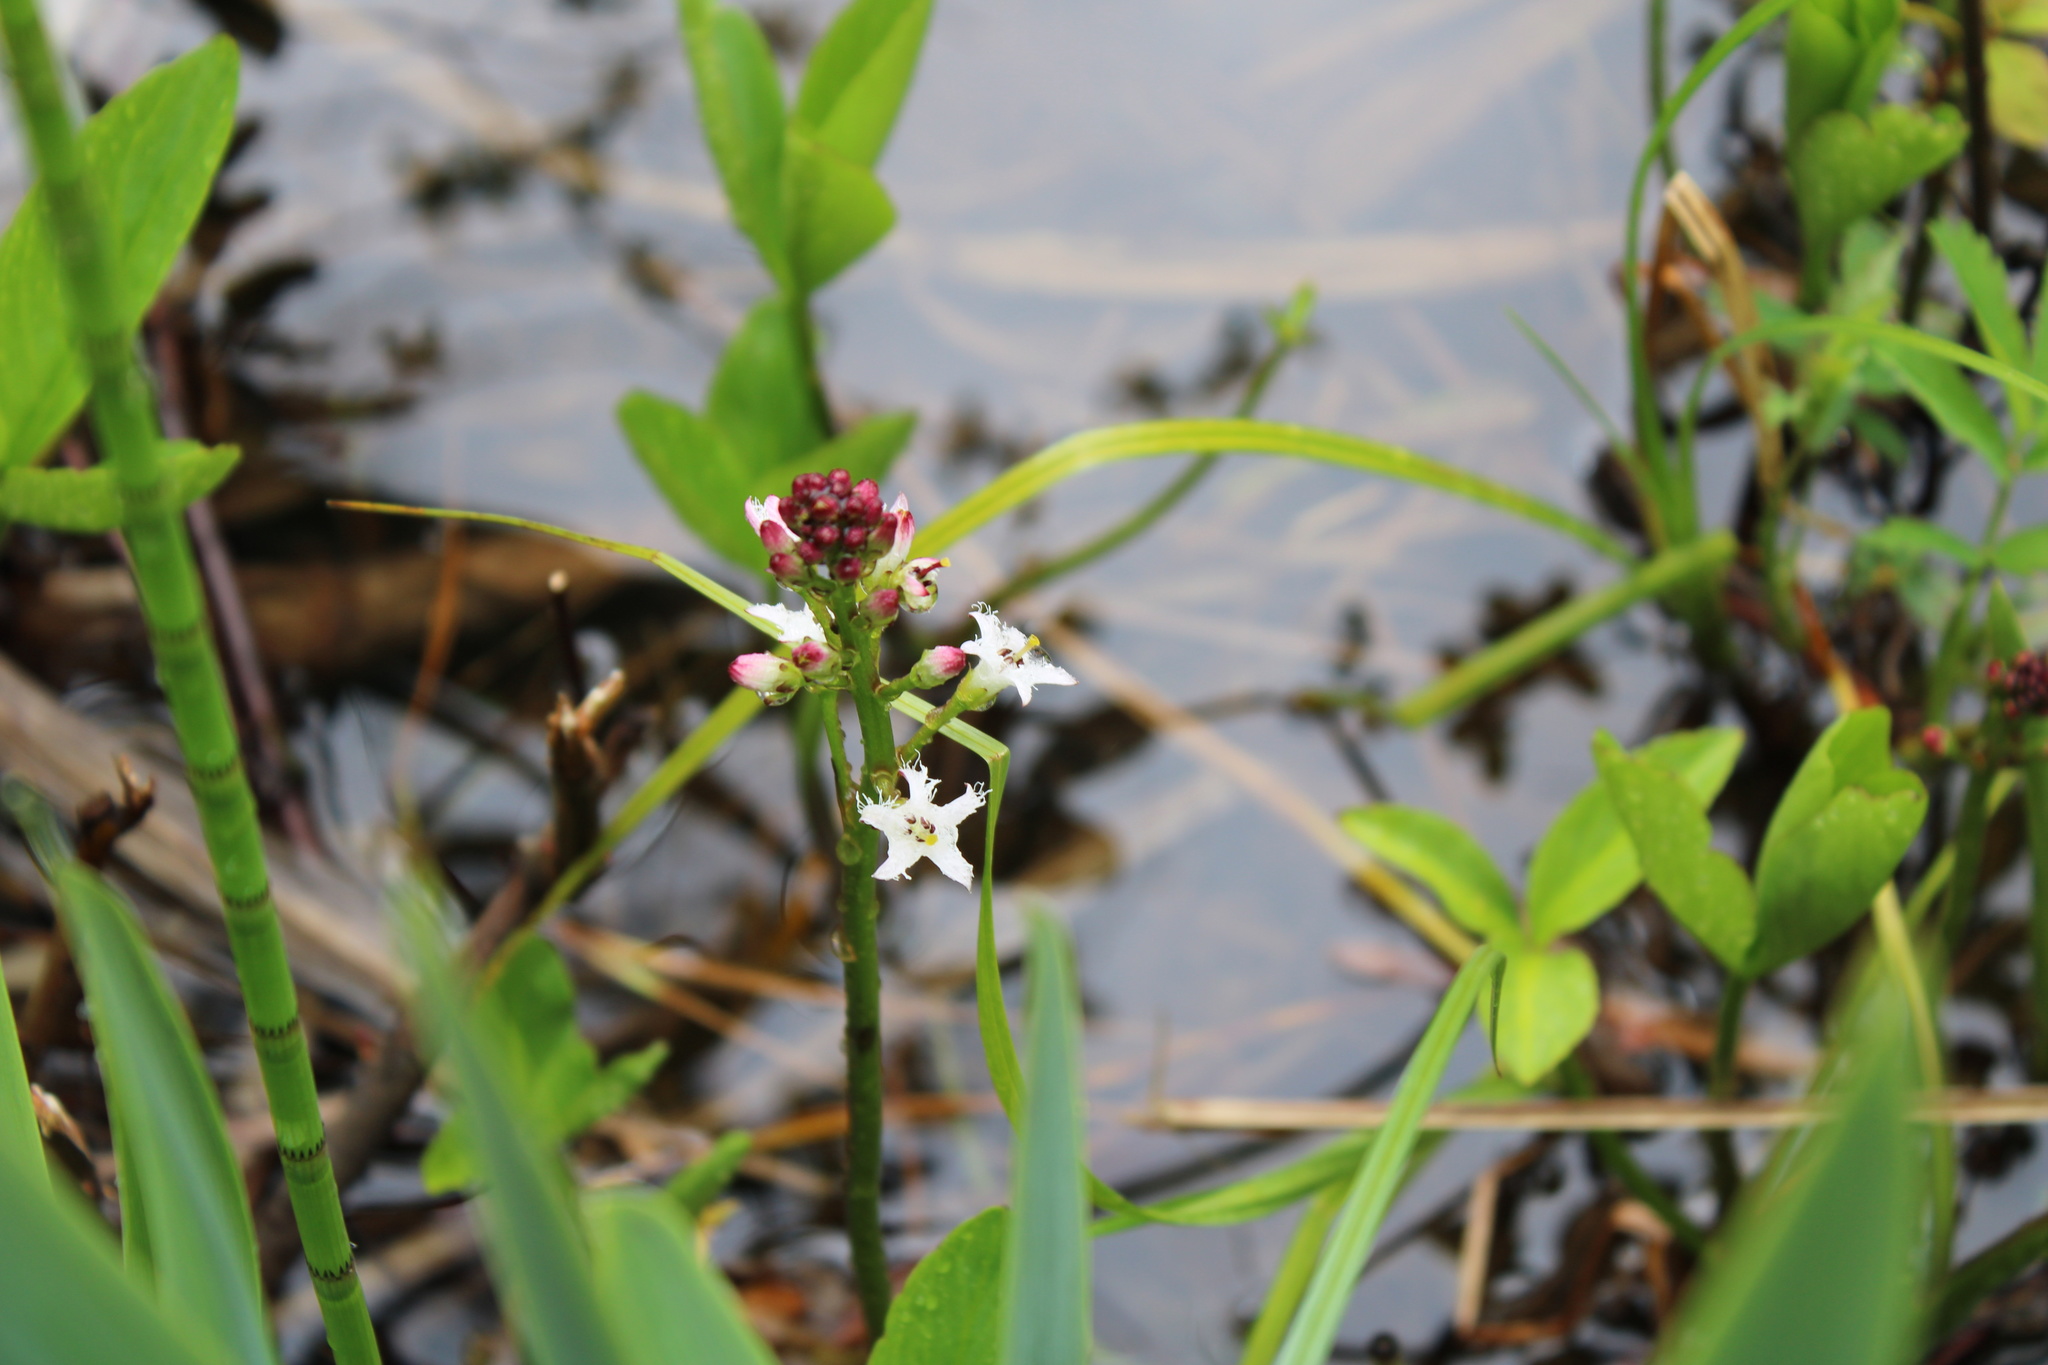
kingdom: Plantae
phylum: Tracheophyta
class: Magnoliopsida
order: Asterales
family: Menyanthaceae
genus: Menyanthes
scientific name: Menyanthes trifoliata
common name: Bogbean
